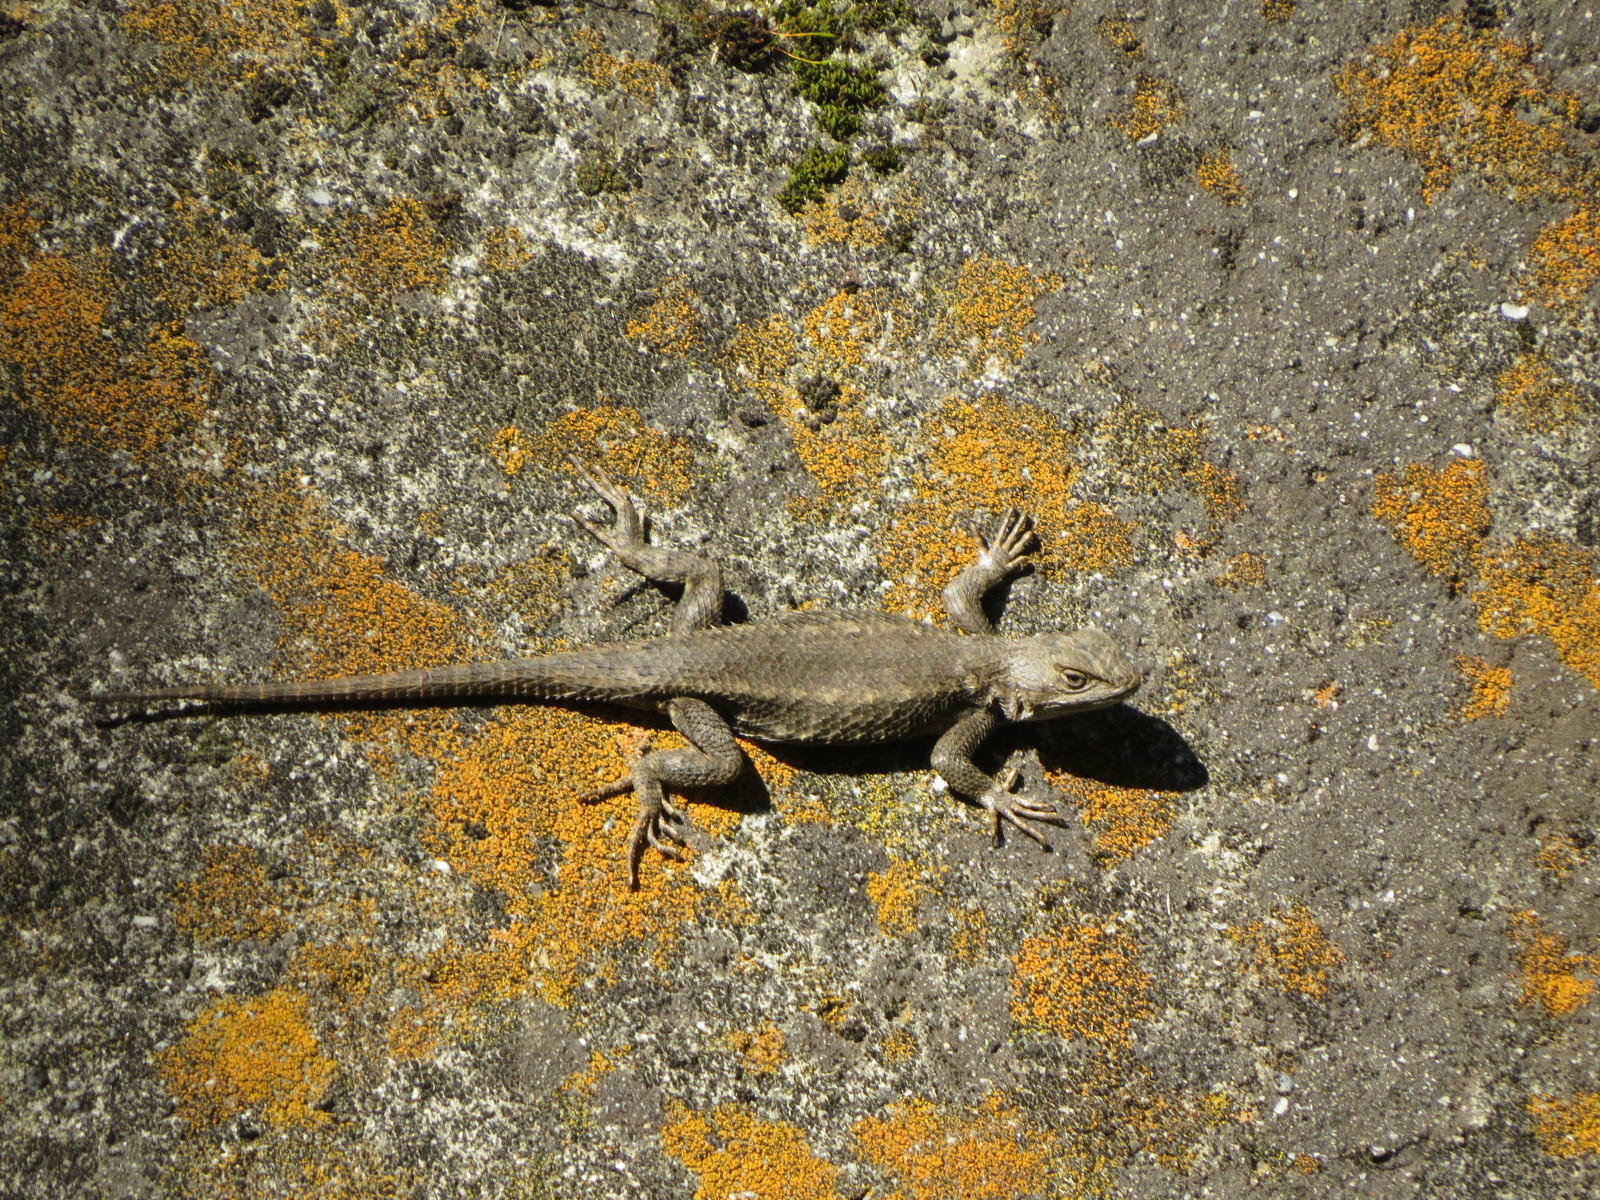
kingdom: Animalia
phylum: Chordata
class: Squamata
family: Phrynosomatidae
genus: Sceloporus
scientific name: Sceloporus occidentalis
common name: Western fence lizard
